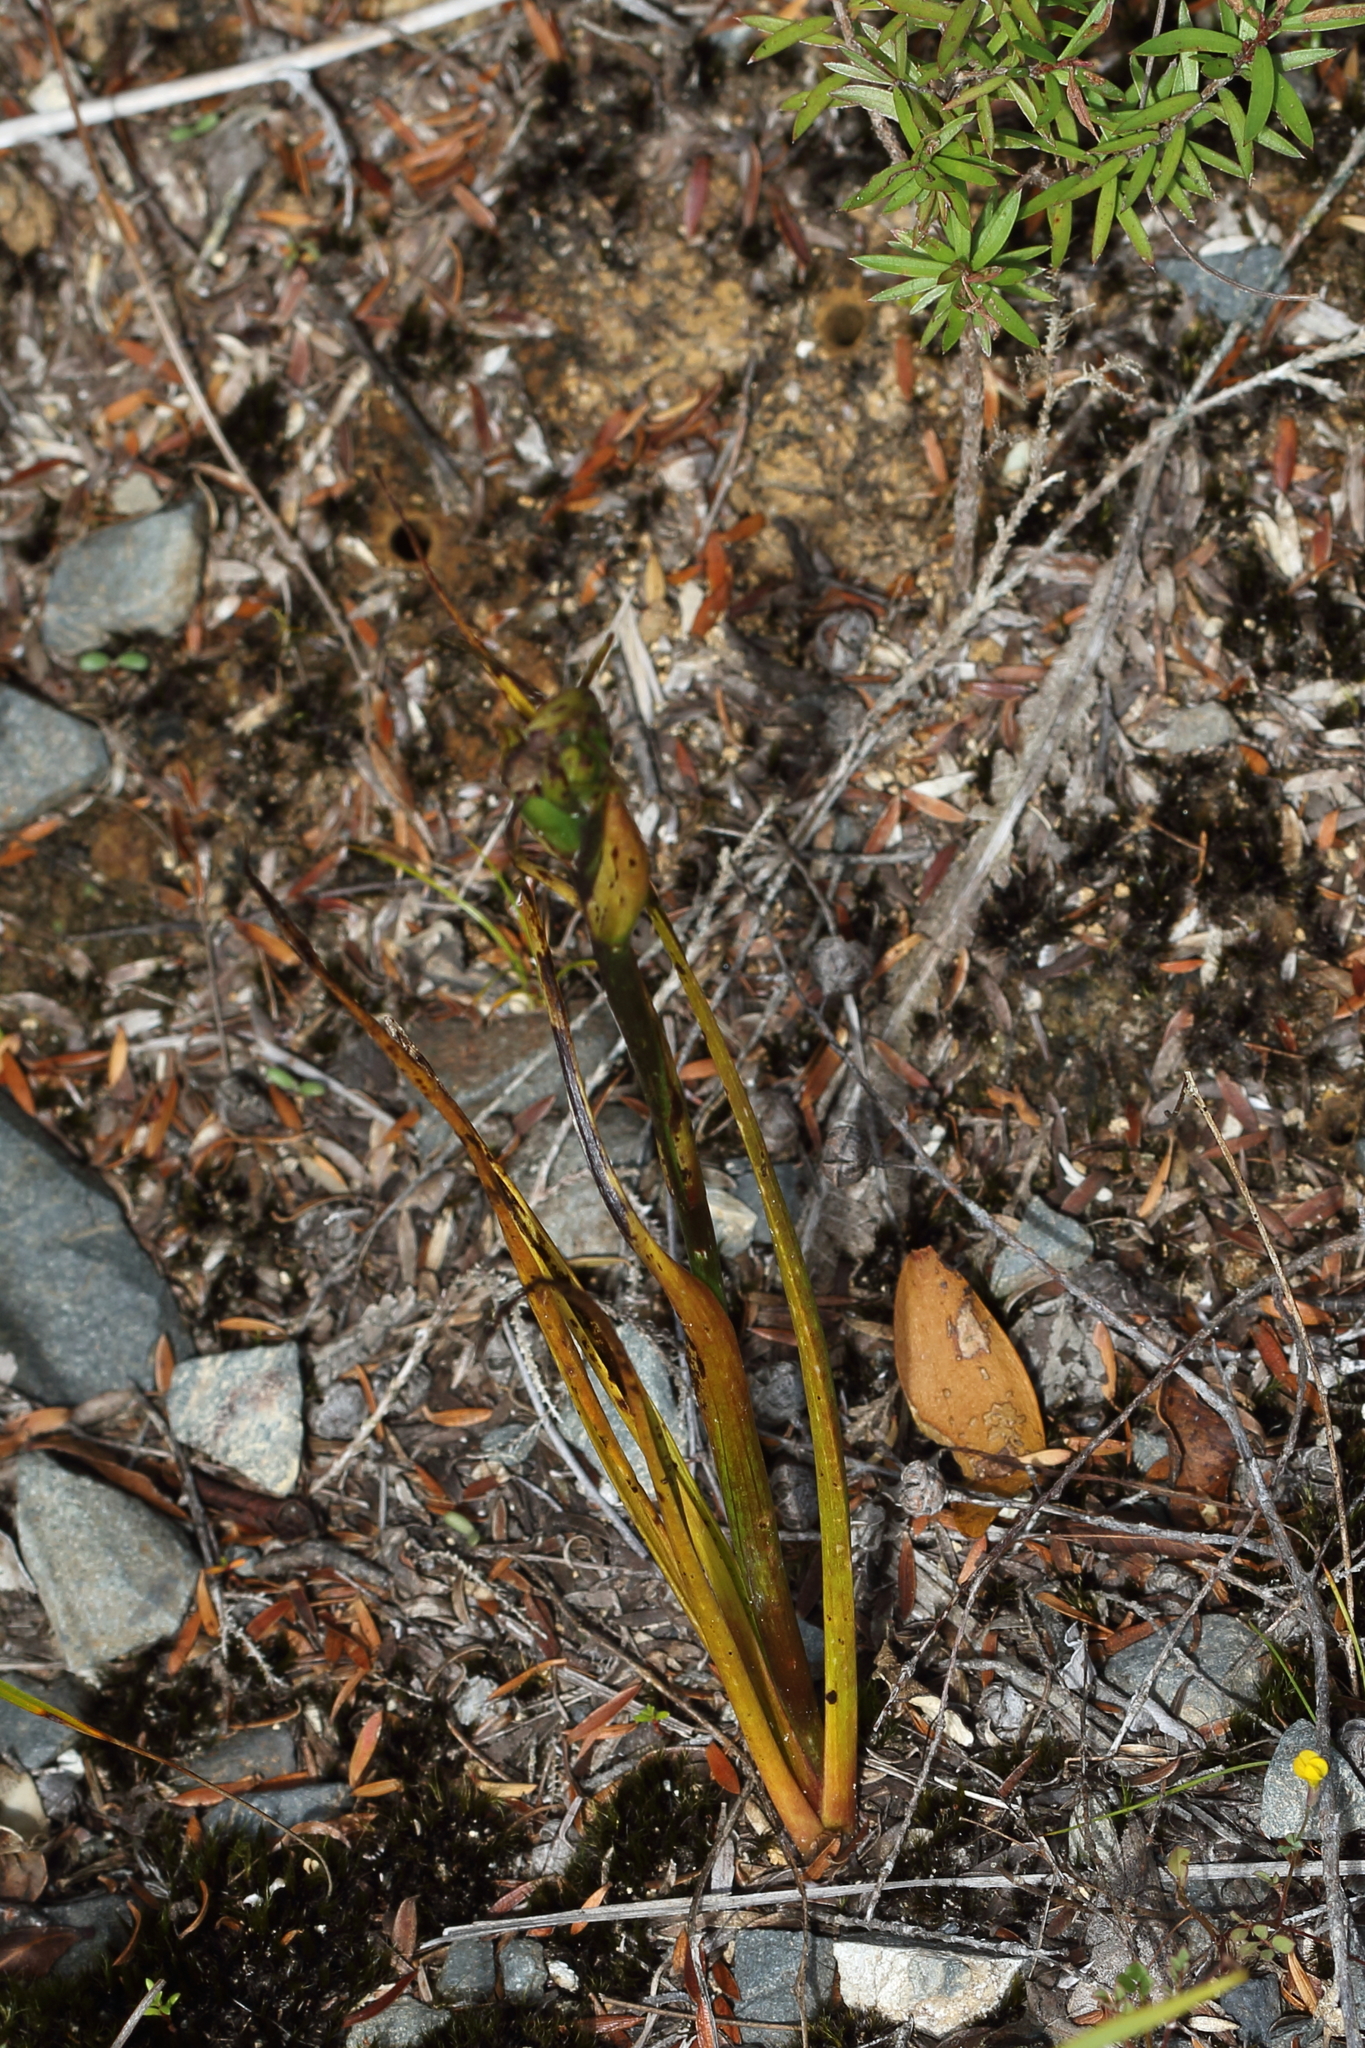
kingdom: Plantae
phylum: Tracheophyta
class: Liliopsida
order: Asparagales
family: Orchidaceae
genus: Orthoceras
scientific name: Orthoceras novae-zeelandiae
